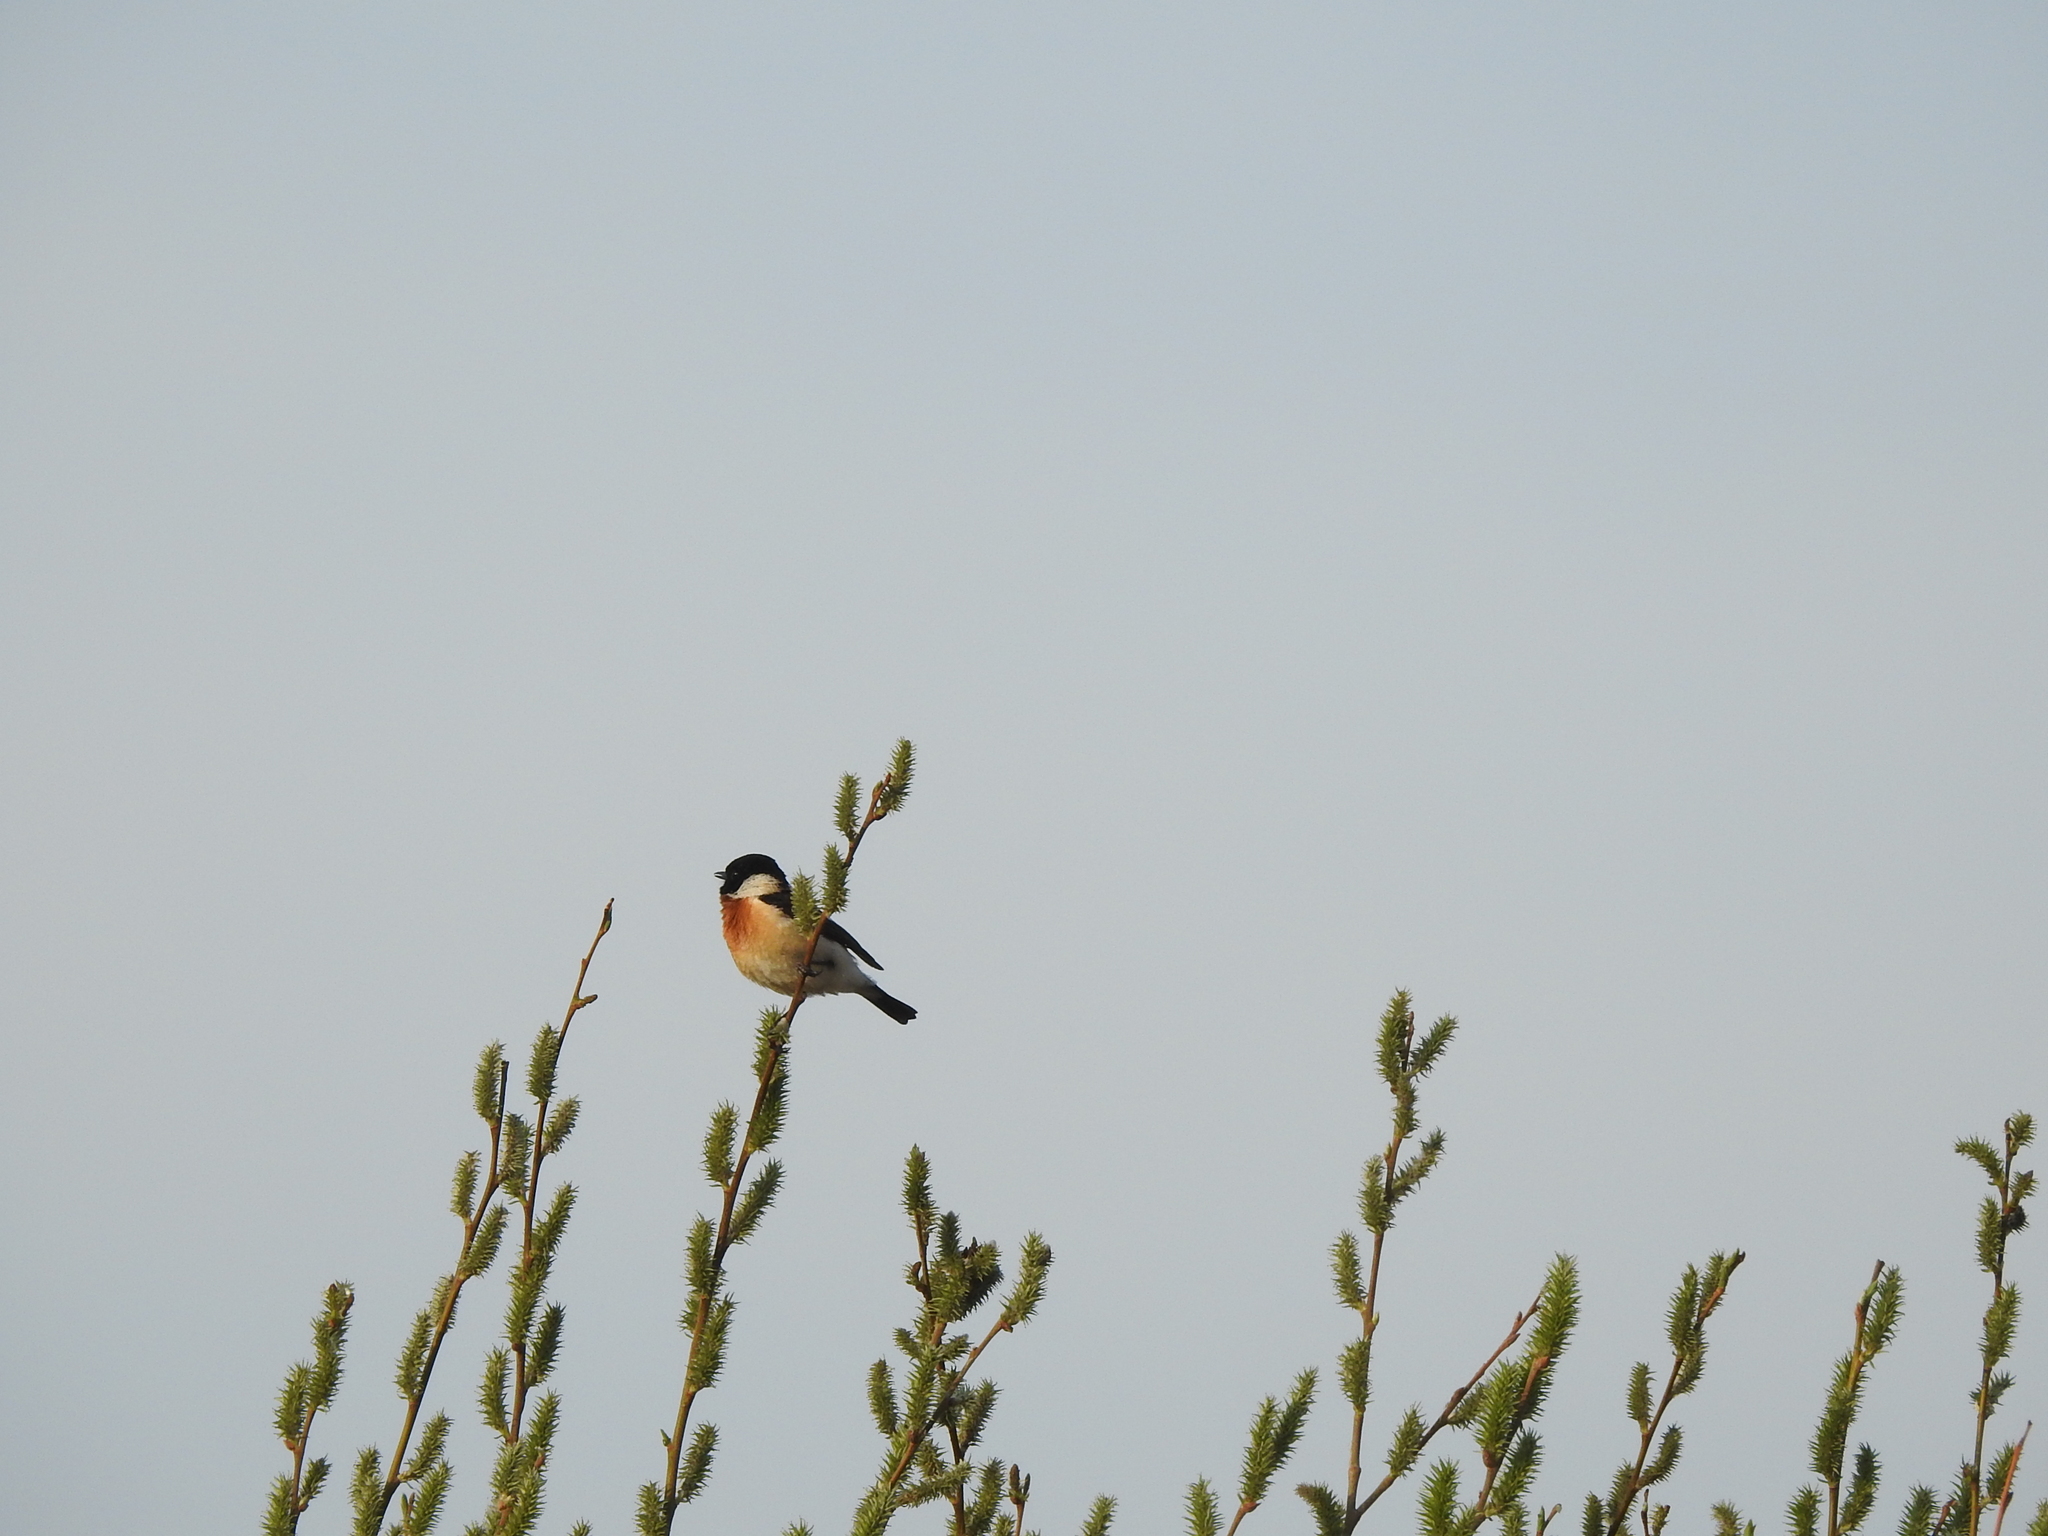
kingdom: Animalia
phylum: Chordata
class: Aves
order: Passeriformes
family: Muscicapidae
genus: Saxicola
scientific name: Saxicola maurus
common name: Siberian stonechat
